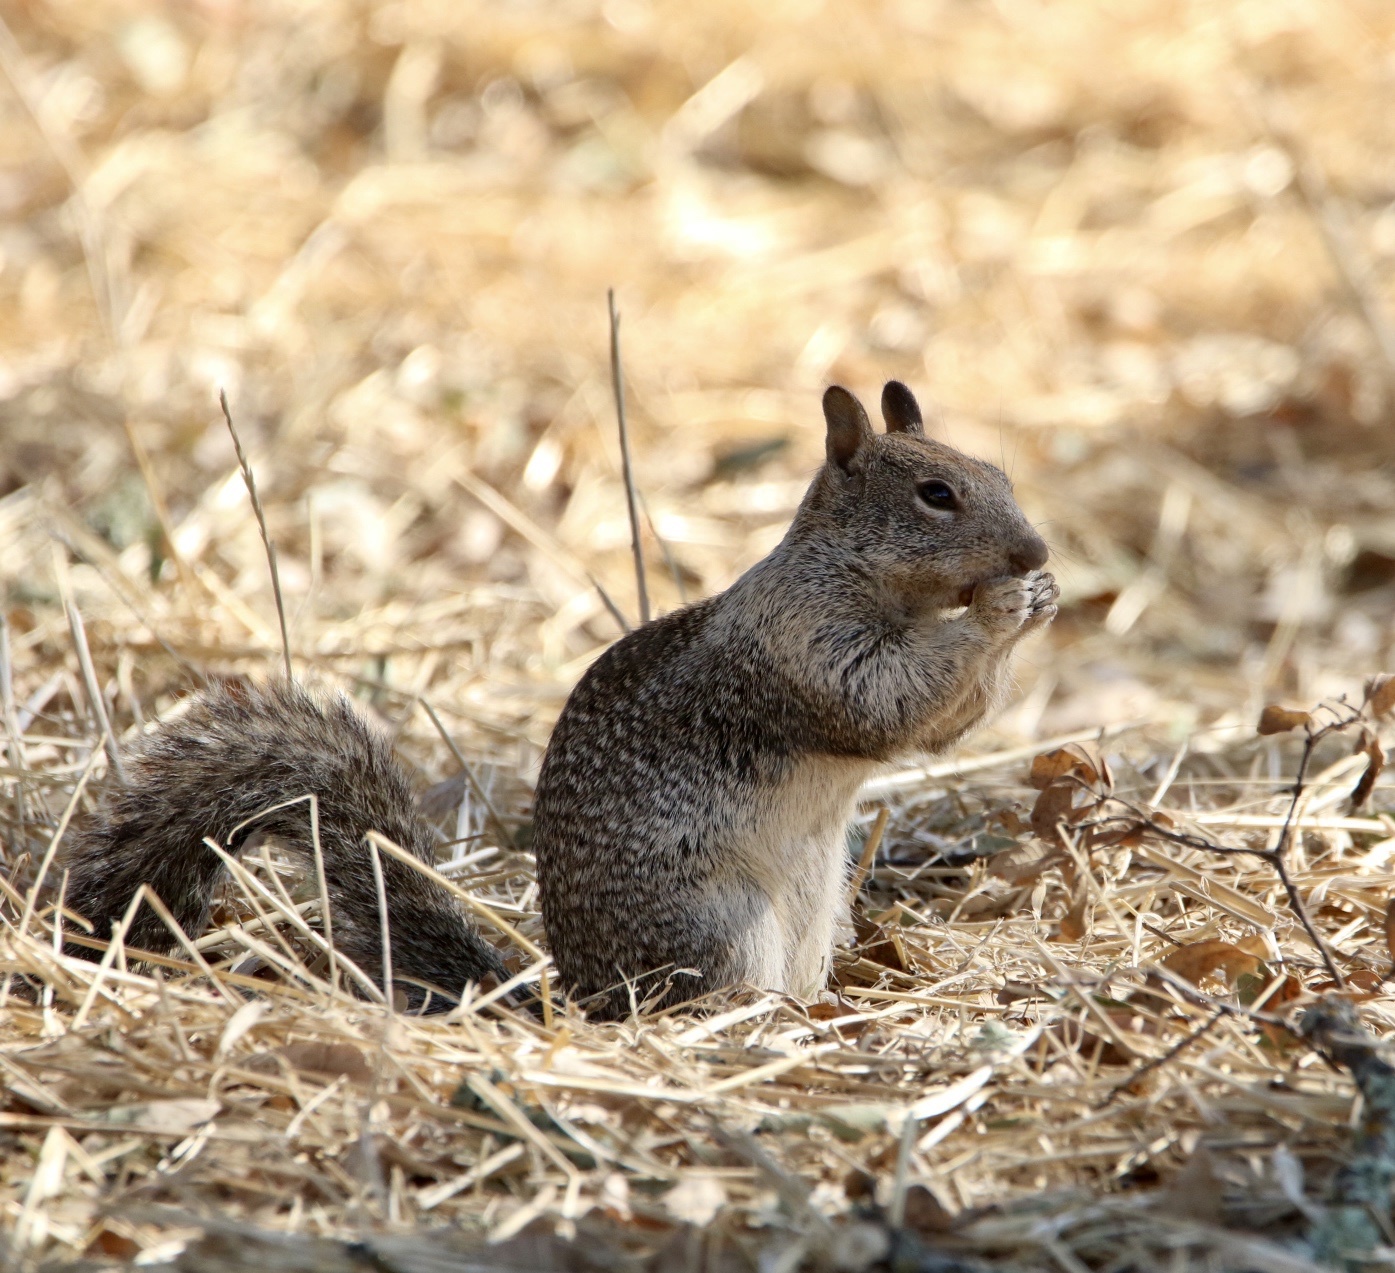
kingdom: Animalia
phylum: Chordata
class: Mammalia
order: Rodentia
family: Sciuridae
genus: Otospermophilus
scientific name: Otospermophilus beecheyi
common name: California ground squirrel
